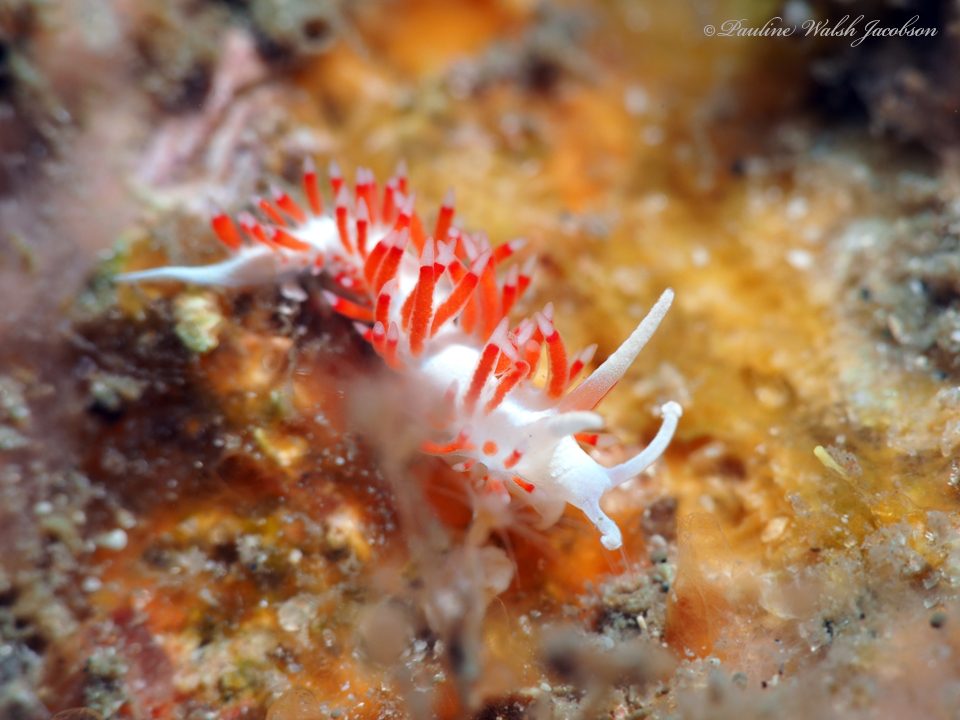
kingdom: Animalia
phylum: Mollusca
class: Gastropoda
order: Nudibranchia
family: Flabellinidae
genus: Flabellina
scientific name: Flabellina dushia
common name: Dushia flabellina
